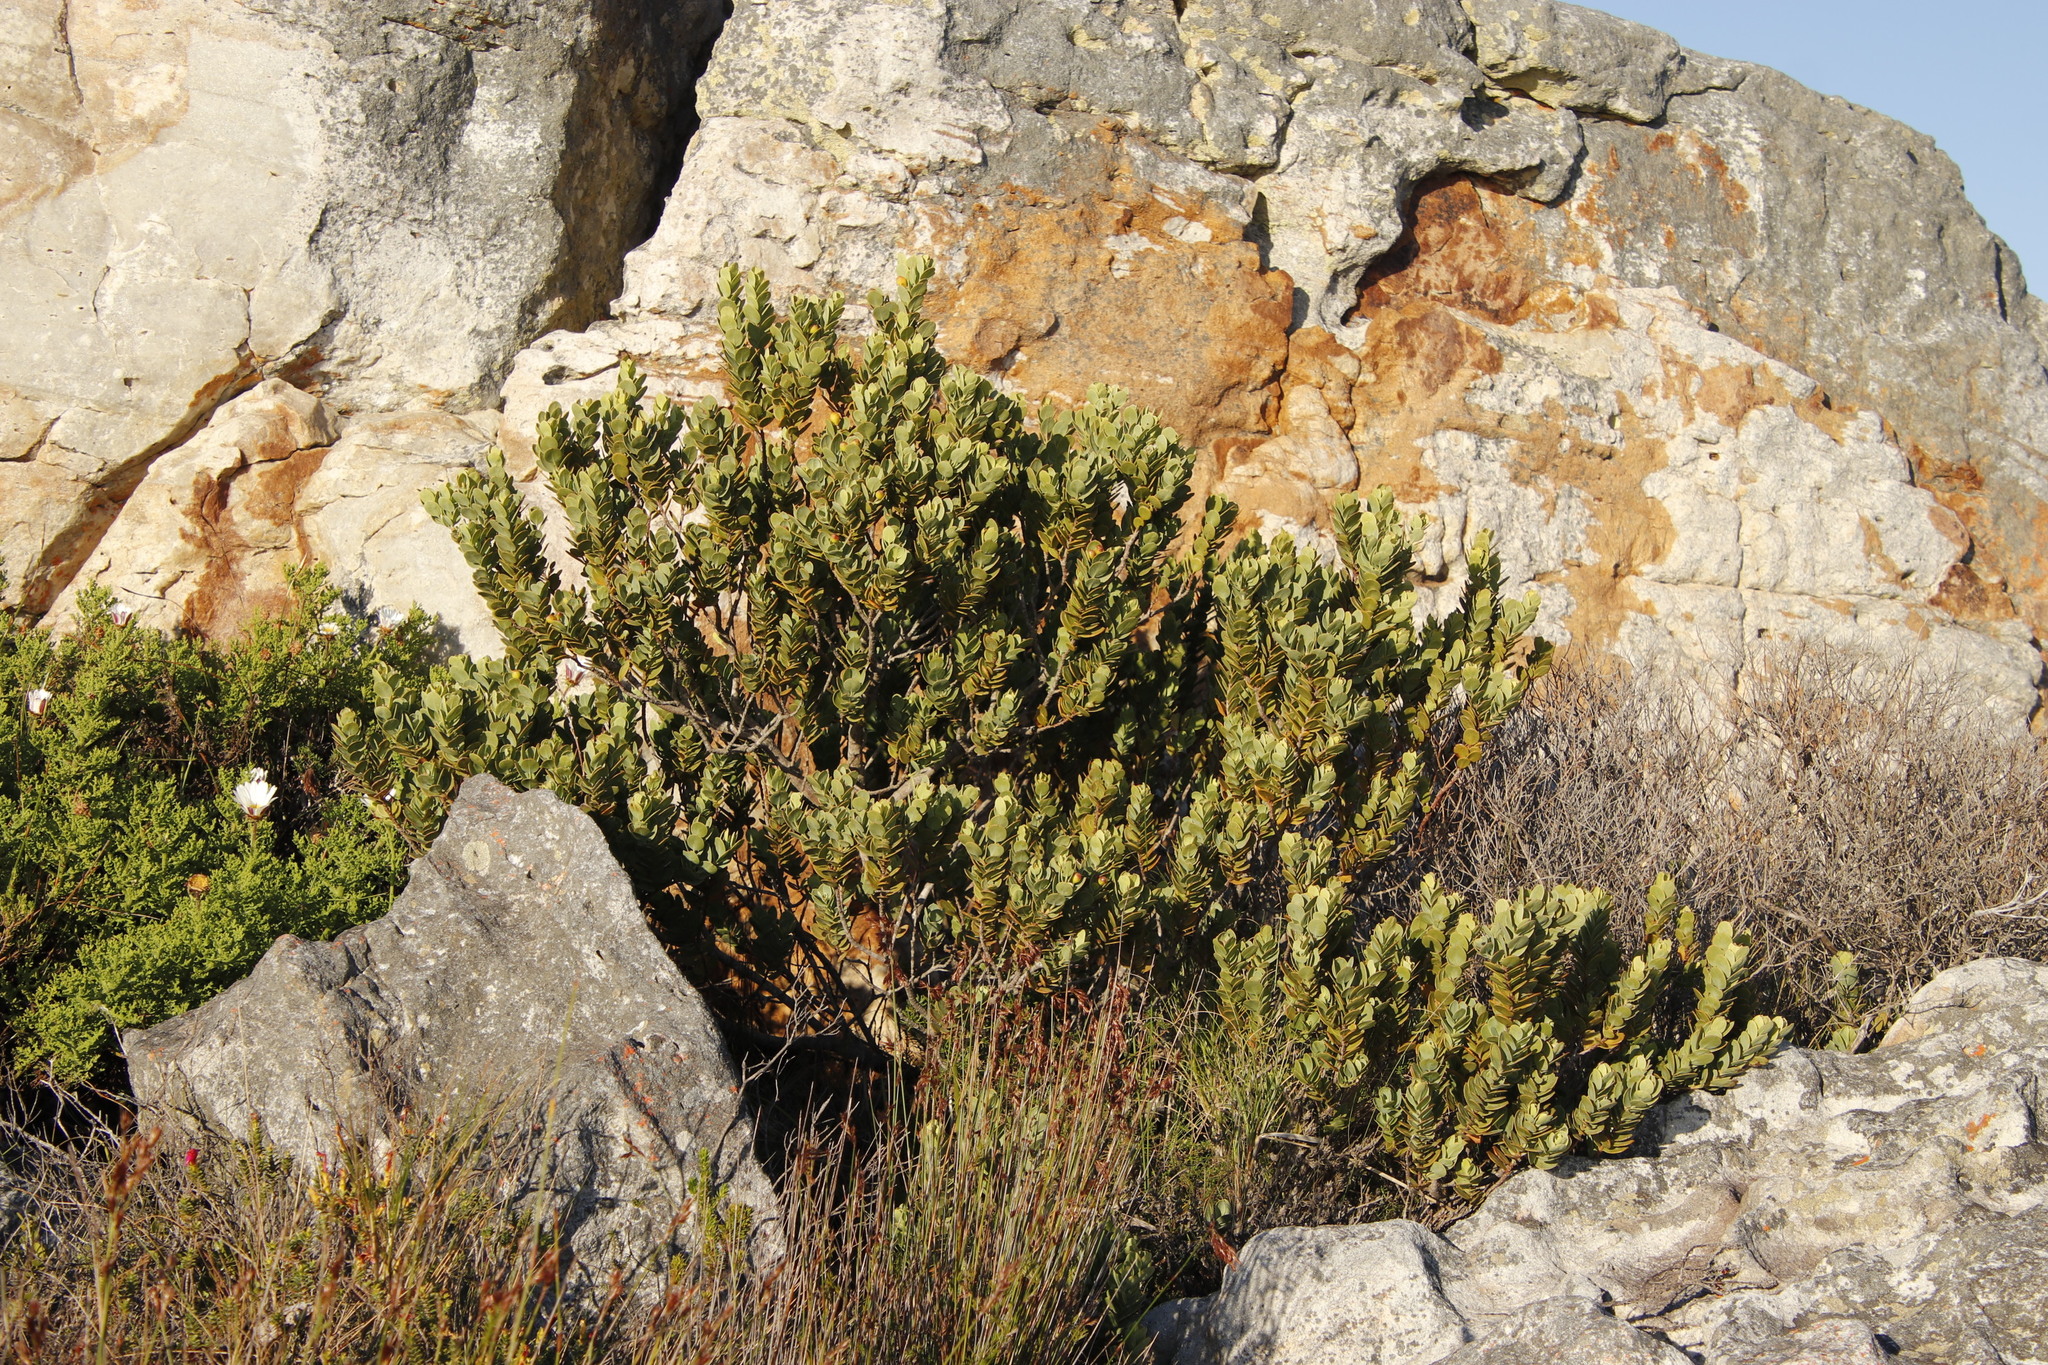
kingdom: Plantae
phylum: Tracheophyta
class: Magnoliopsida
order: Santalales
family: Santalaceae
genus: Osyris
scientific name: Osyris compressa
